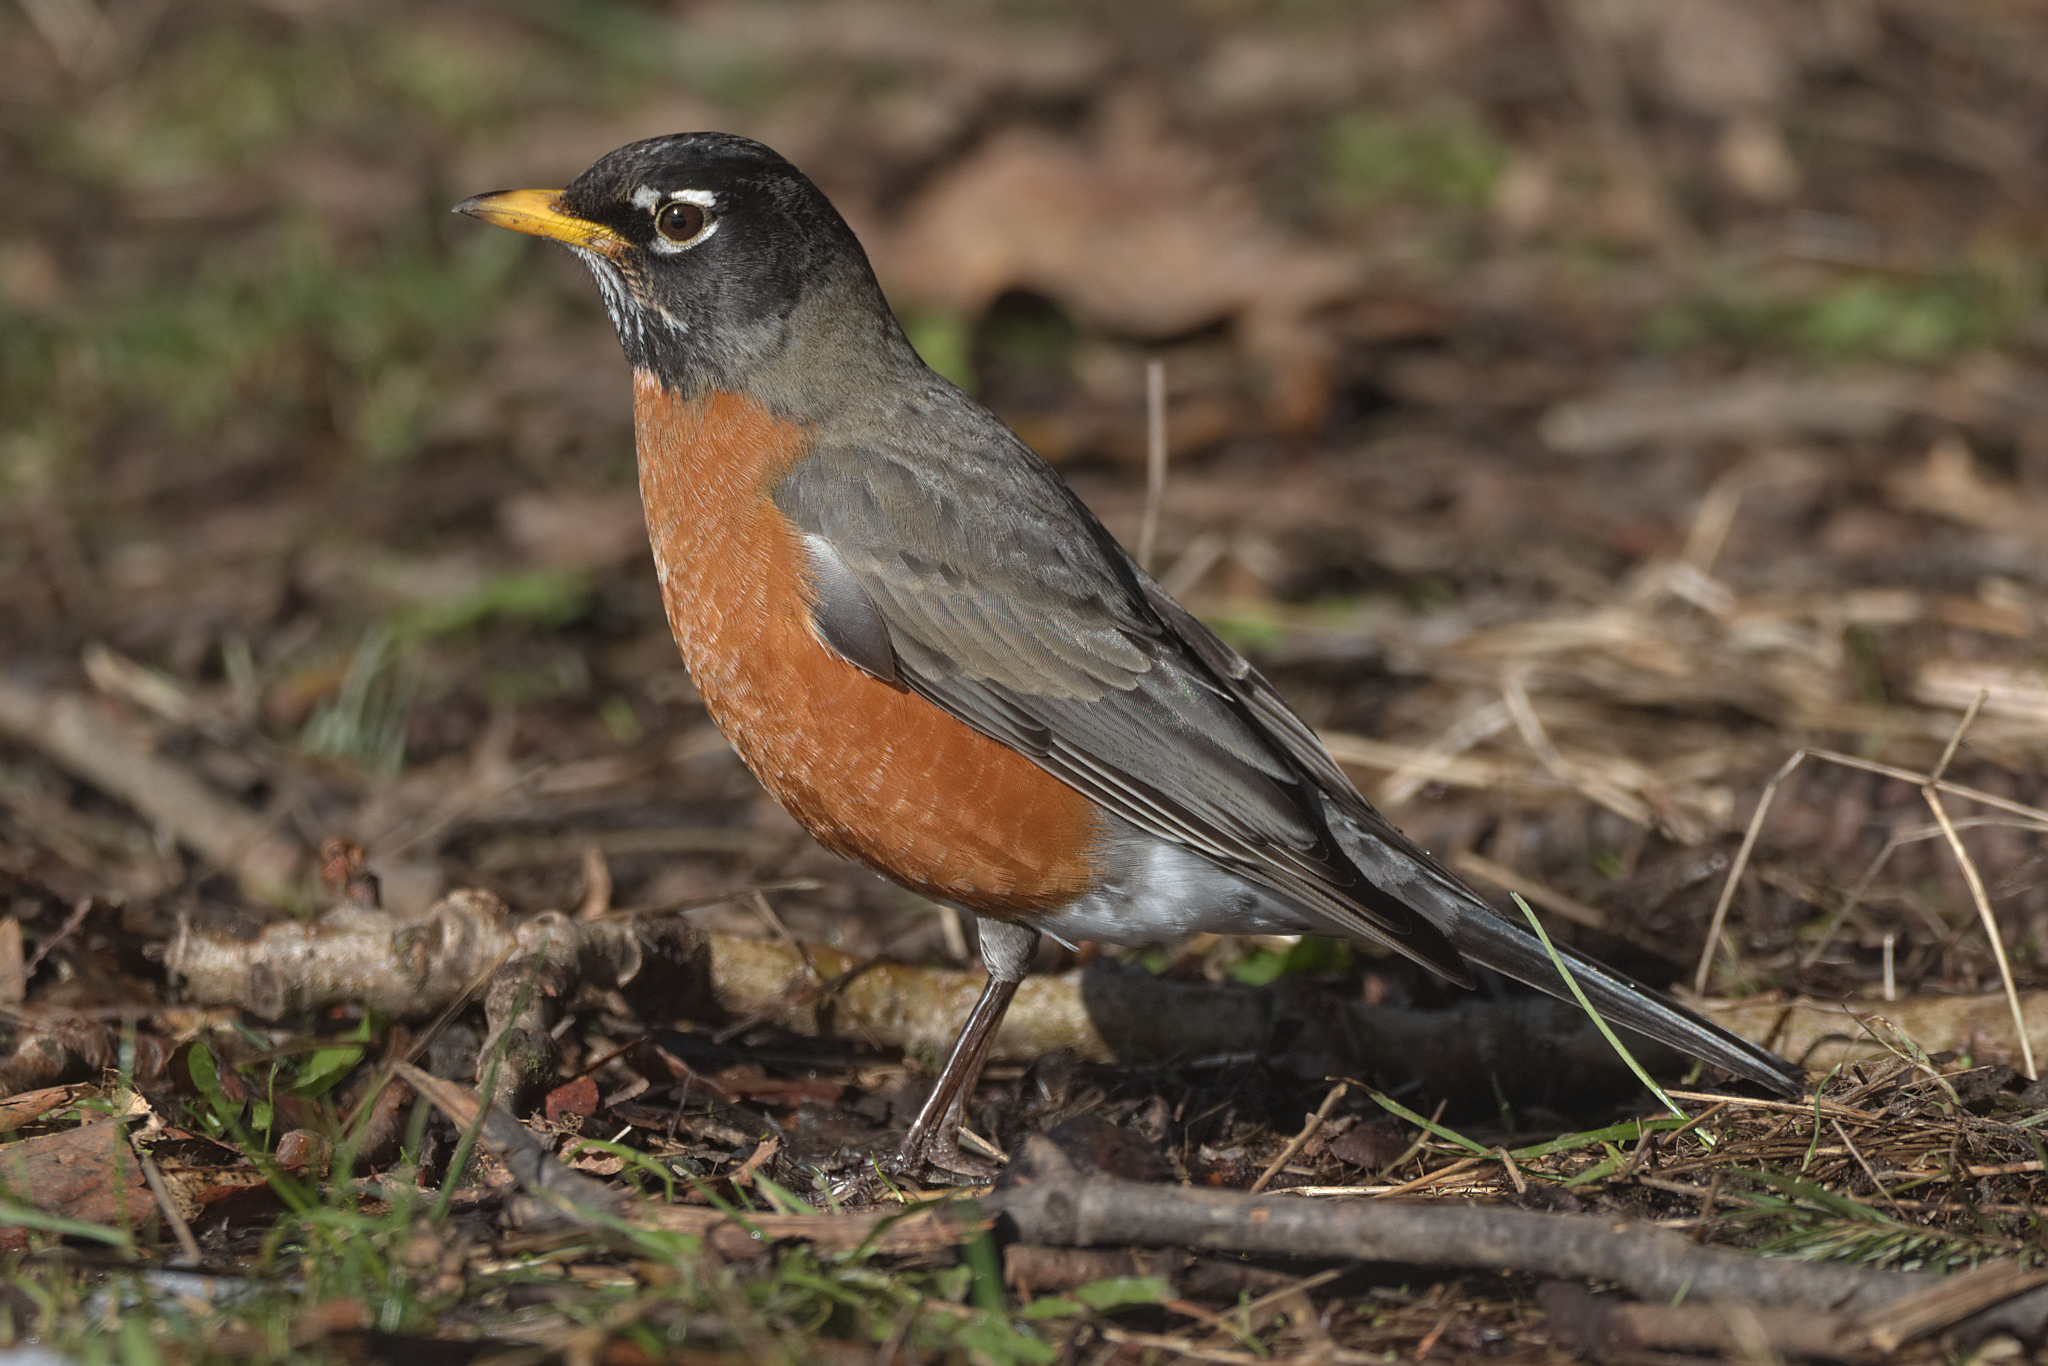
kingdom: Animalia
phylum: Chordata
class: Aves
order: Passeriformes
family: Turdidae
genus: Turdus
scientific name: Turdus migratorius
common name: American robin
